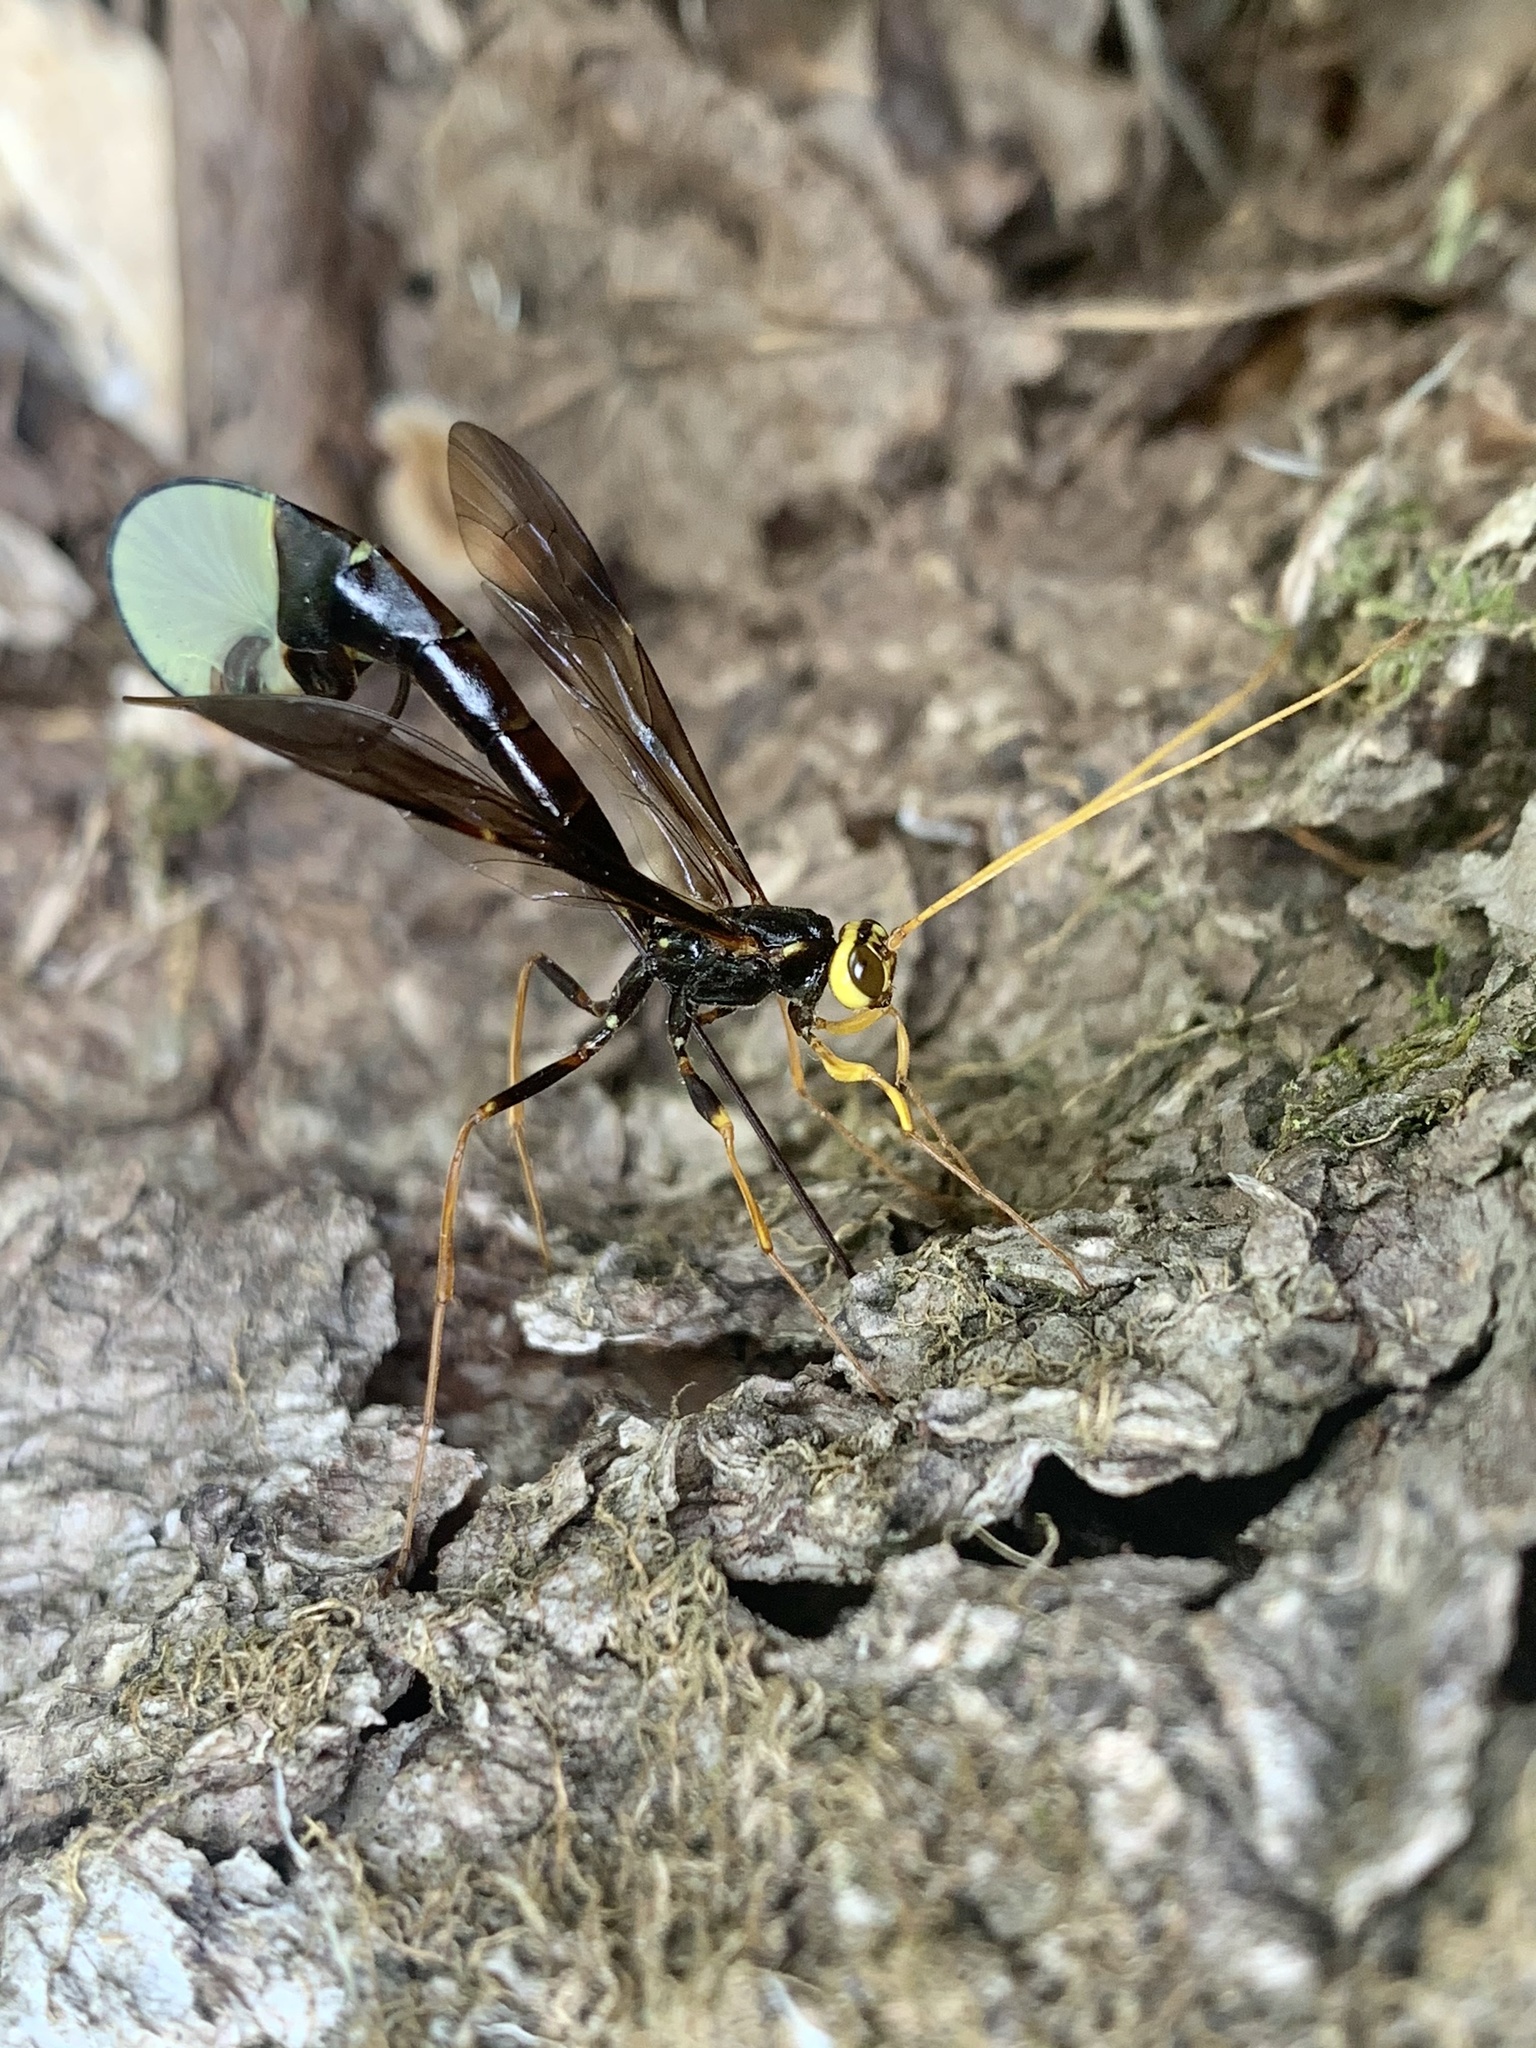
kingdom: Animalia
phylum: Arthropoda
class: Insecta
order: Hymenoptera
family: Ichneumonidae
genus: Megarhyssa
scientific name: Megarhyssa atrata
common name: Black giant ichneumonid wasp
